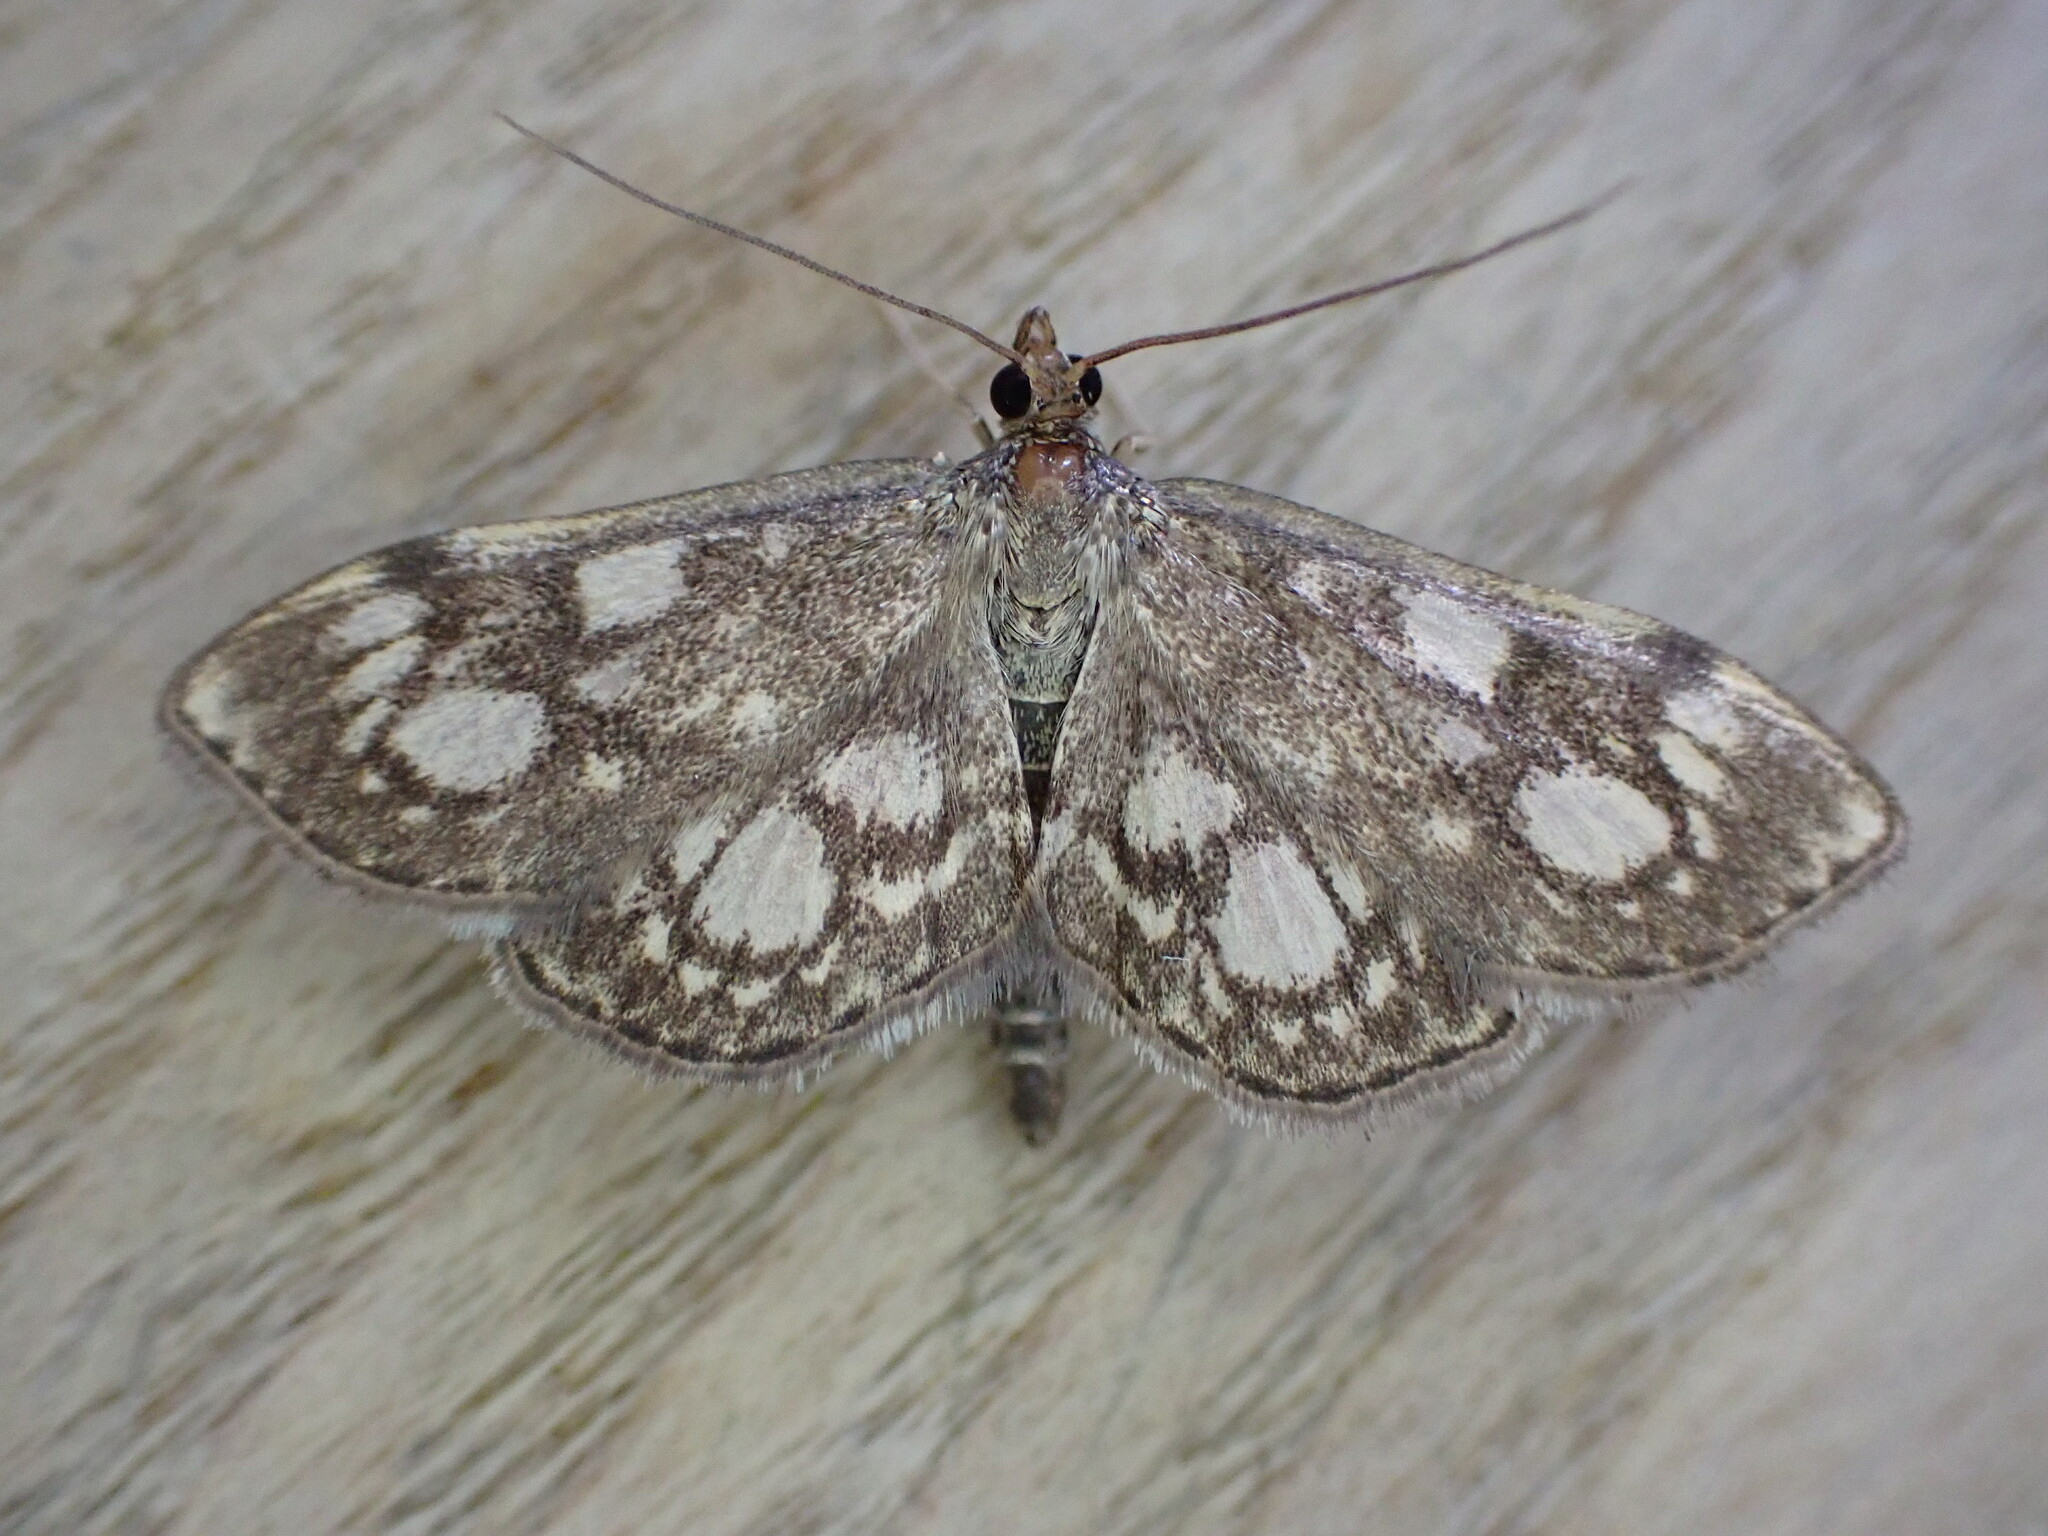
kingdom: Animalia
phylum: Arthropoda
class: Insecta
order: Lepidoptera
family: Crambidae
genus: Anania
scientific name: Anania coronata
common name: Elder pearl
